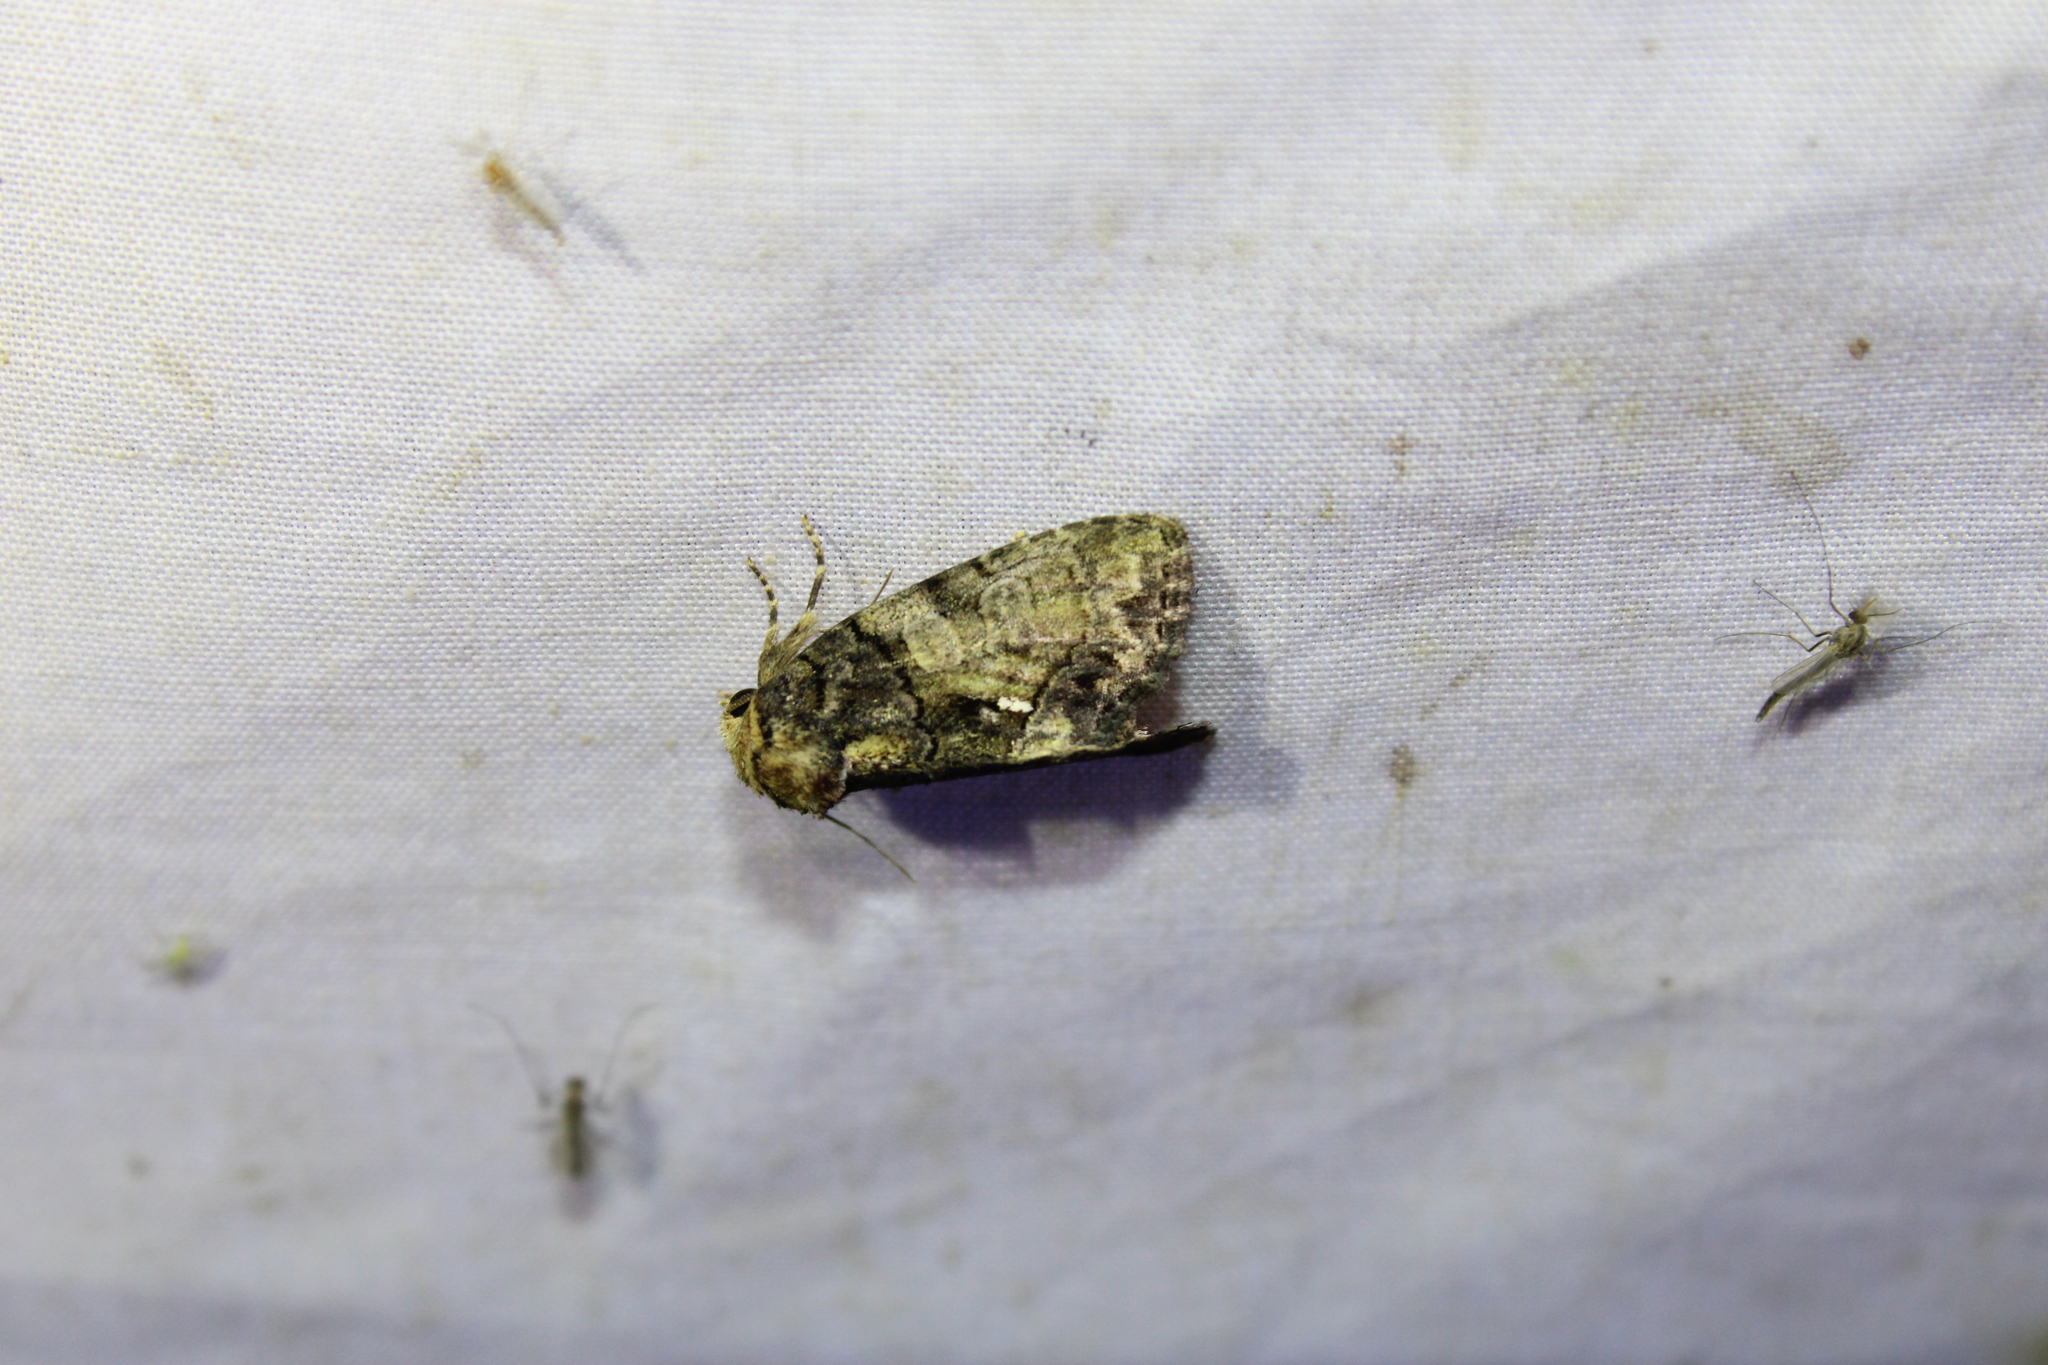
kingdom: Animalia
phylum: Arthropoda
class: Insecta
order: Lepidoptera
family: Noctuidae
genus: Chytonix
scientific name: Chytonix palliatricula
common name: Cloaked marvel
